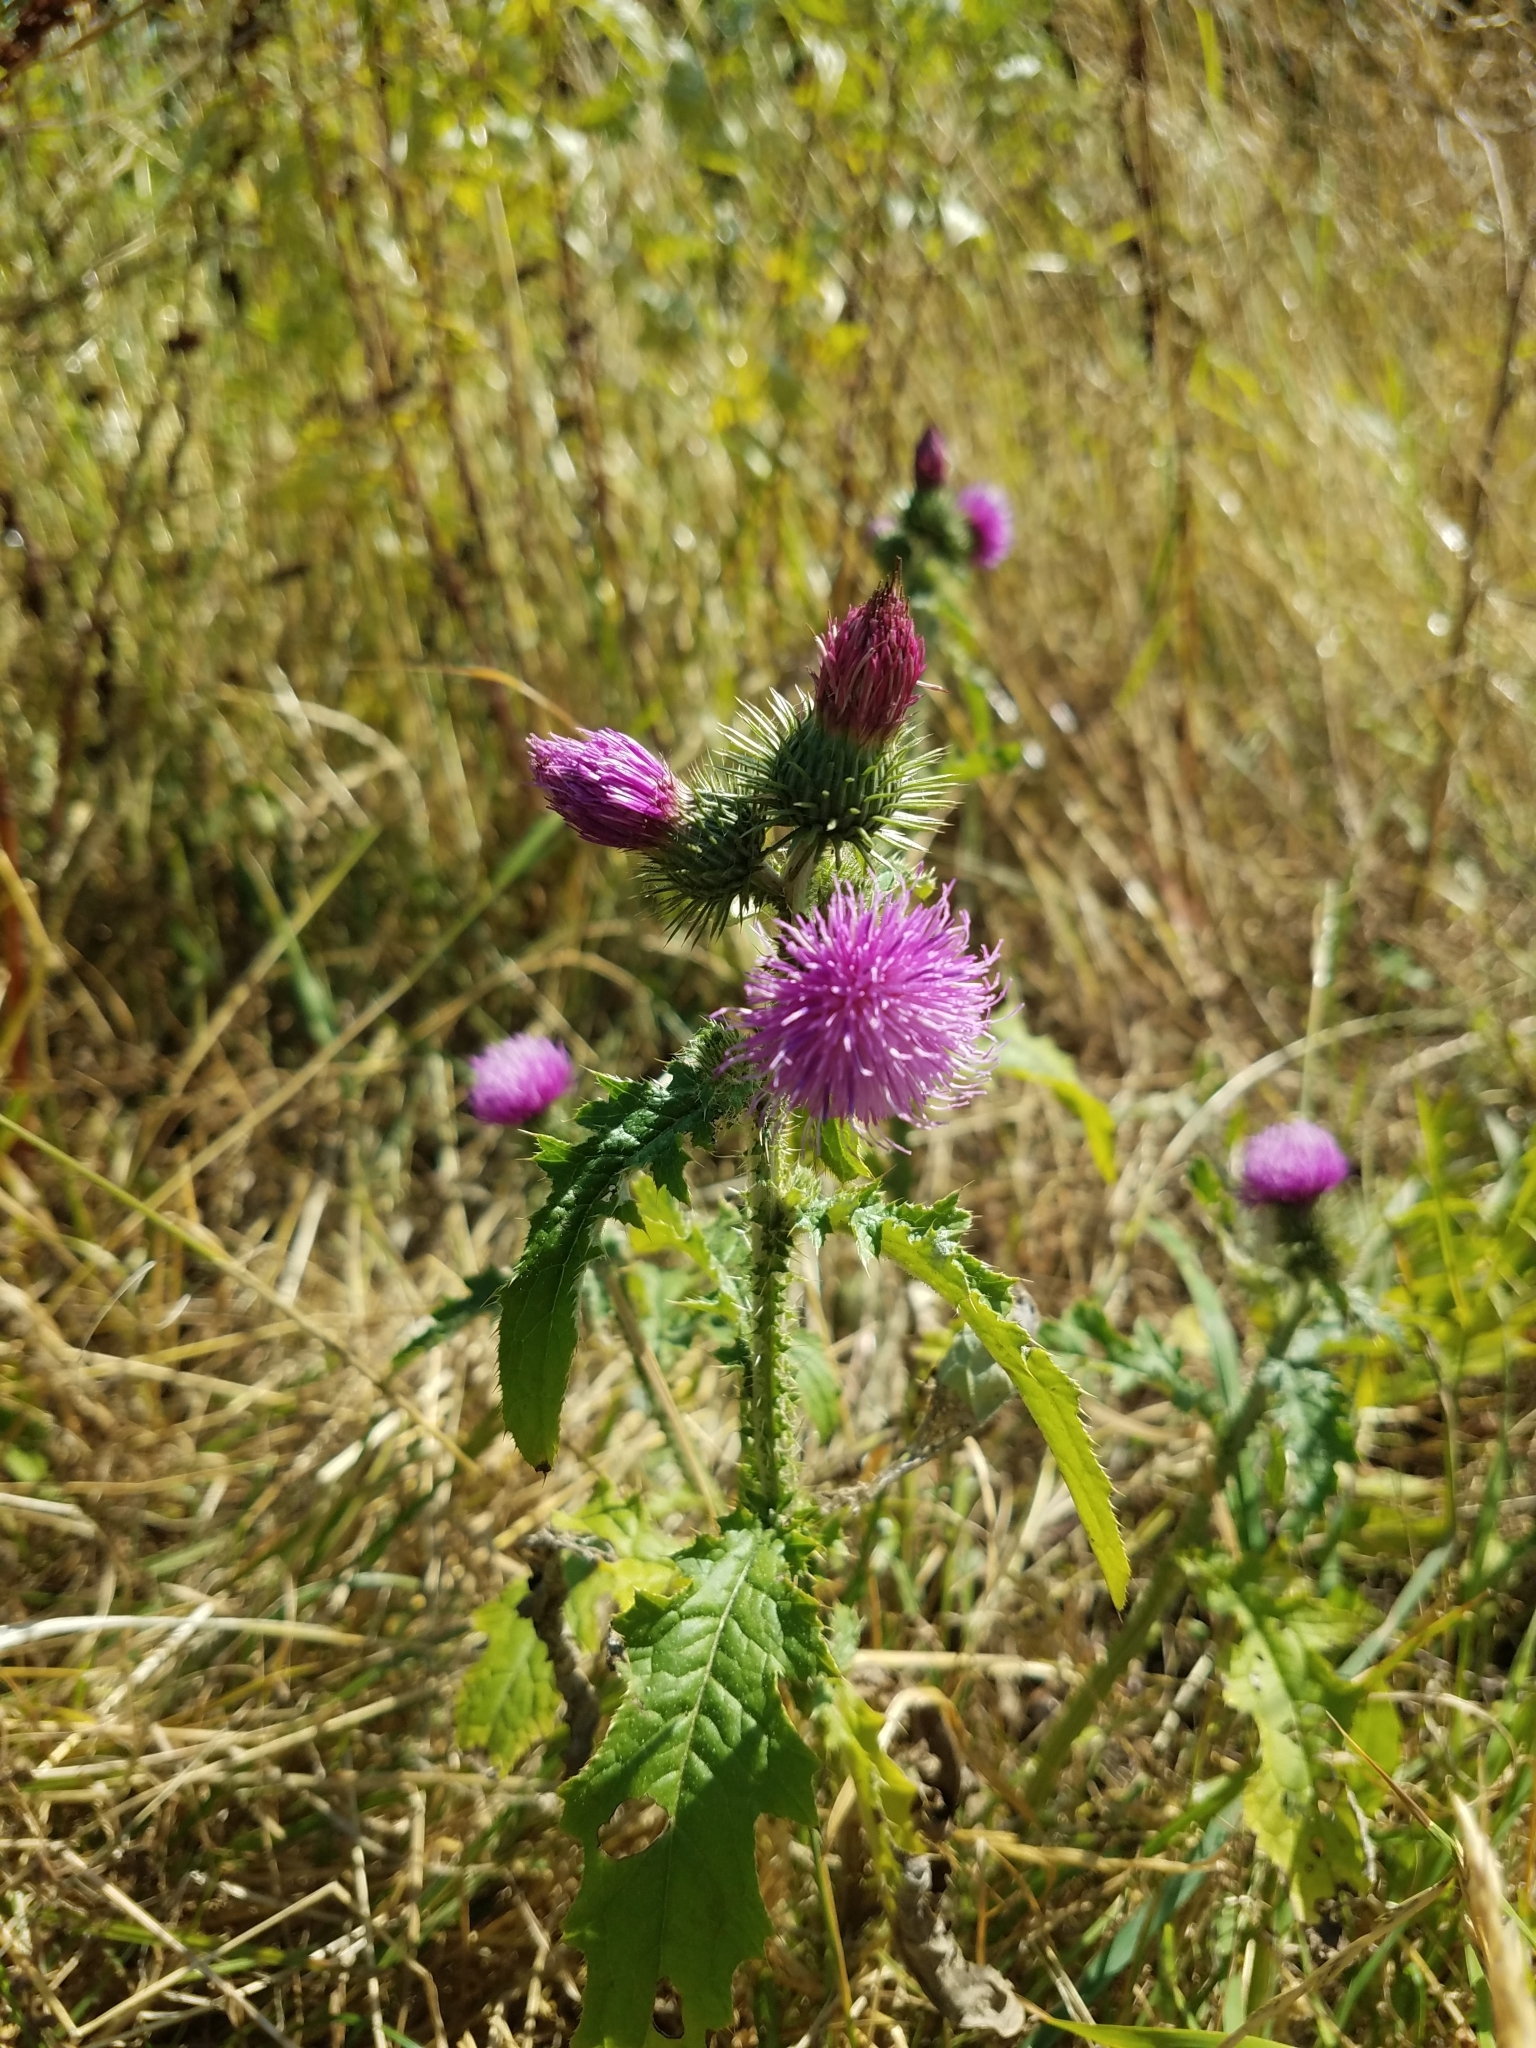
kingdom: Plantae
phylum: Tracheophyta
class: Magnoliopsida
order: Asterales
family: Asteraceae
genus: Carduus
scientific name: Carduus crispus
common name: Welted thistle
